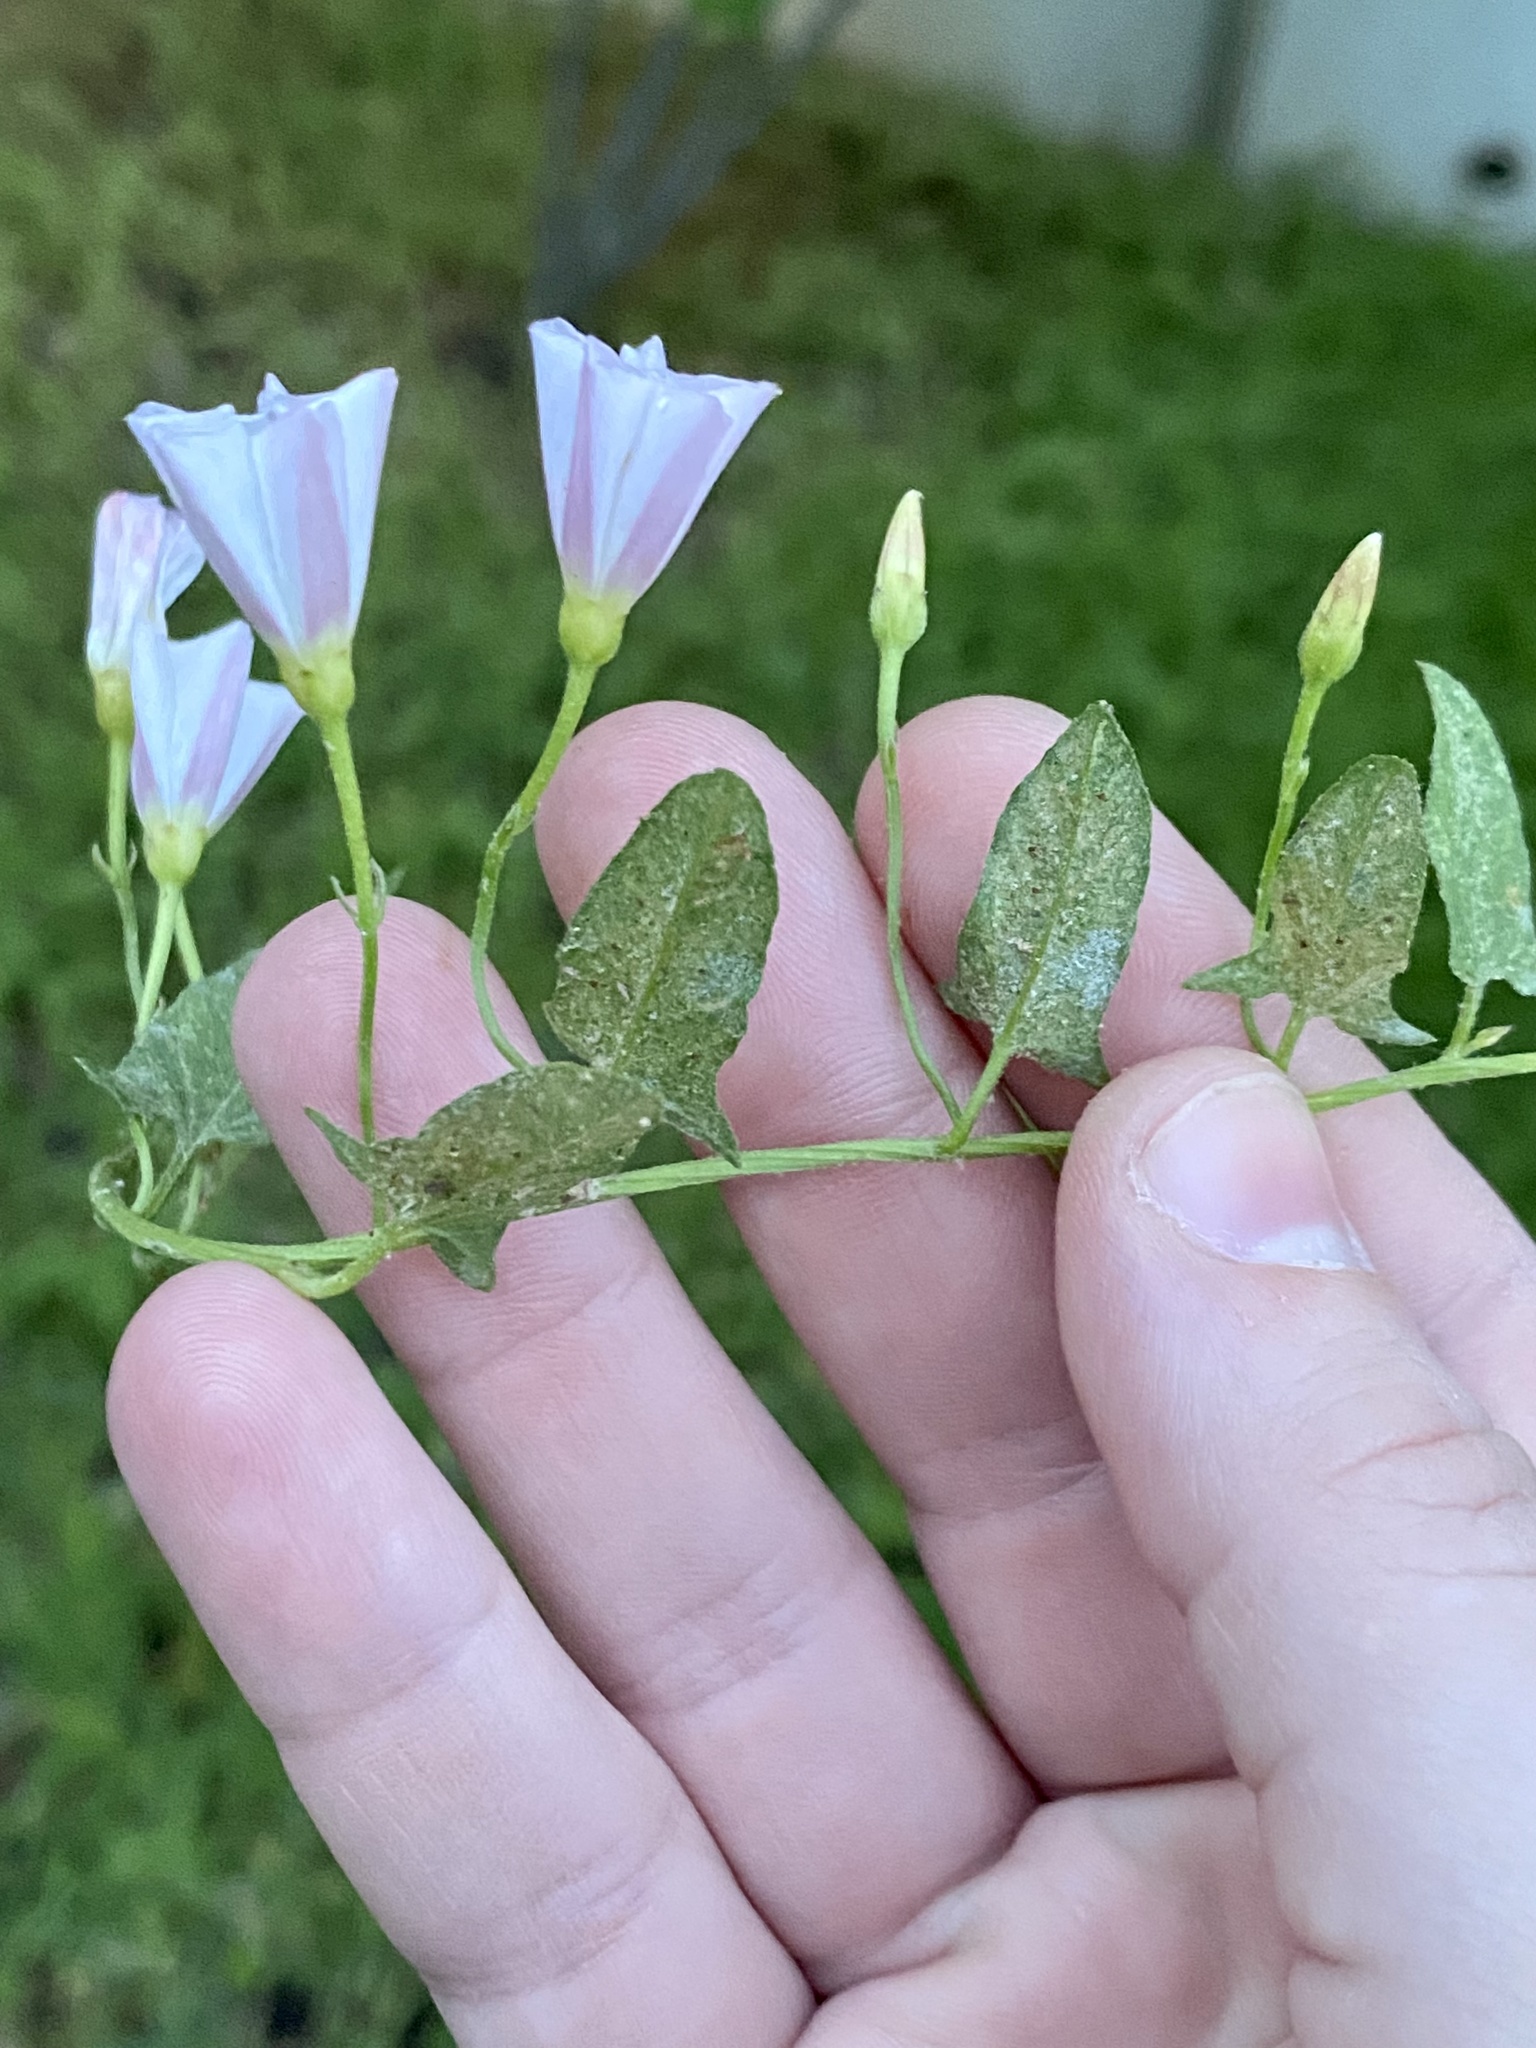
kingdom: Plantae
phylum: Tracheophyta
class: Magnoliopsida
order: Solanales
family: Convolvulaceae
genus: Convolvulus
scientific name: Convolvulus arvensis
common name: Field bindweed
